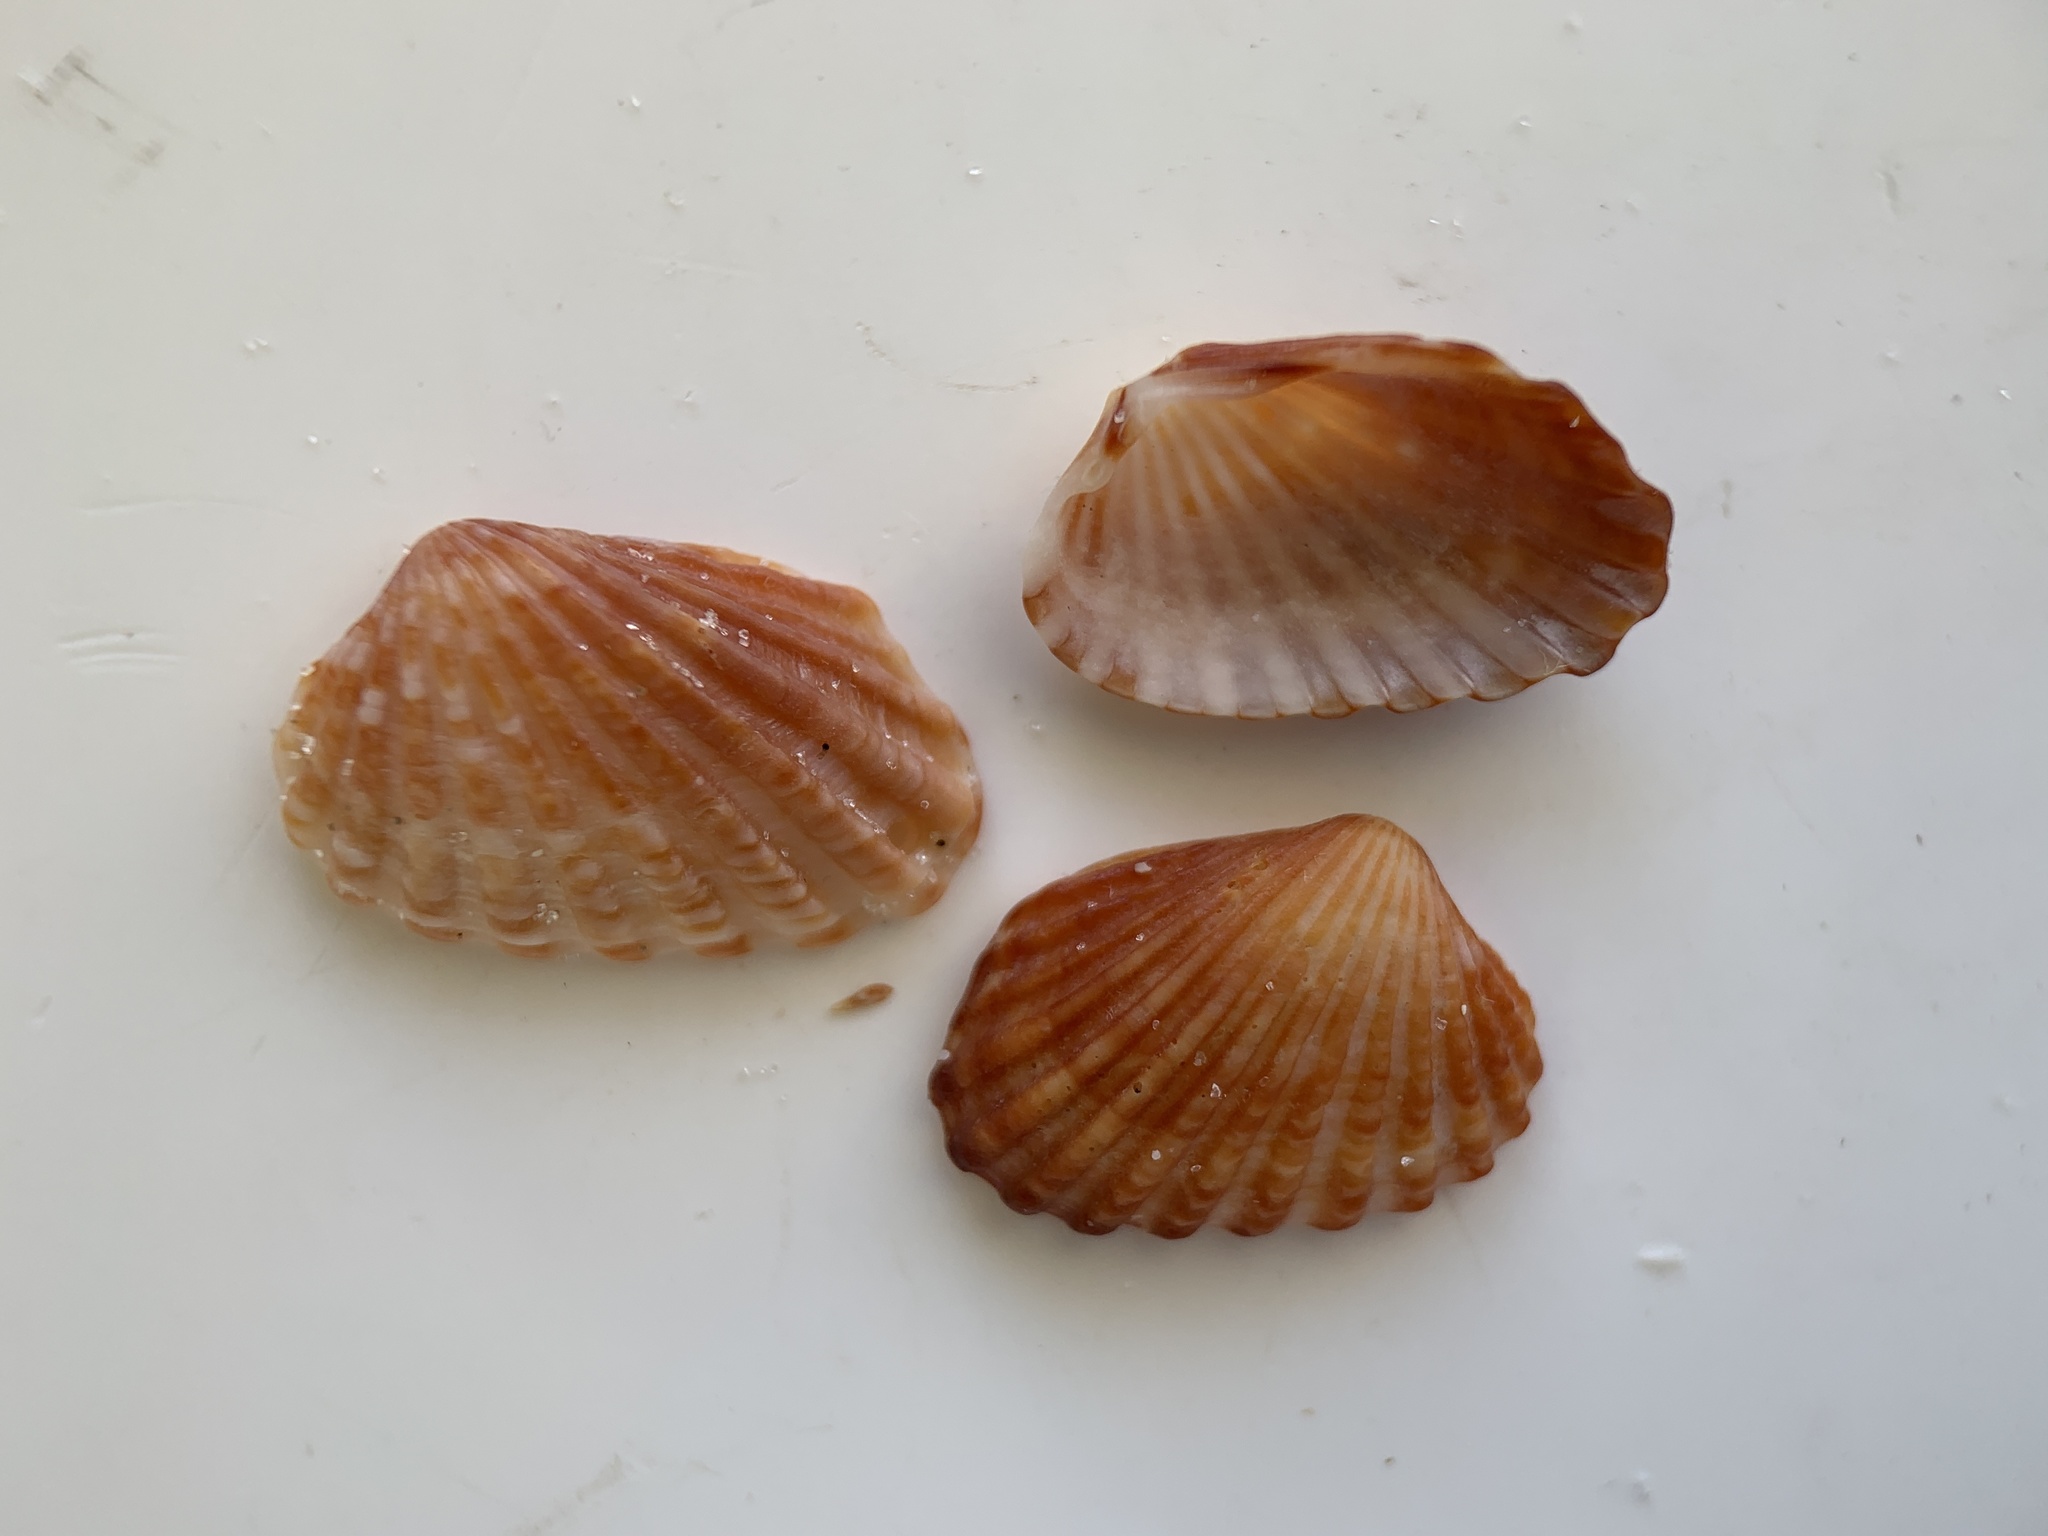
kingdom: Animalia
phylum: Mollusca
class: Bivalvia
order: Carditida
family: Carditidae
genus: Cardites
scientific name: Cardites floridanus
